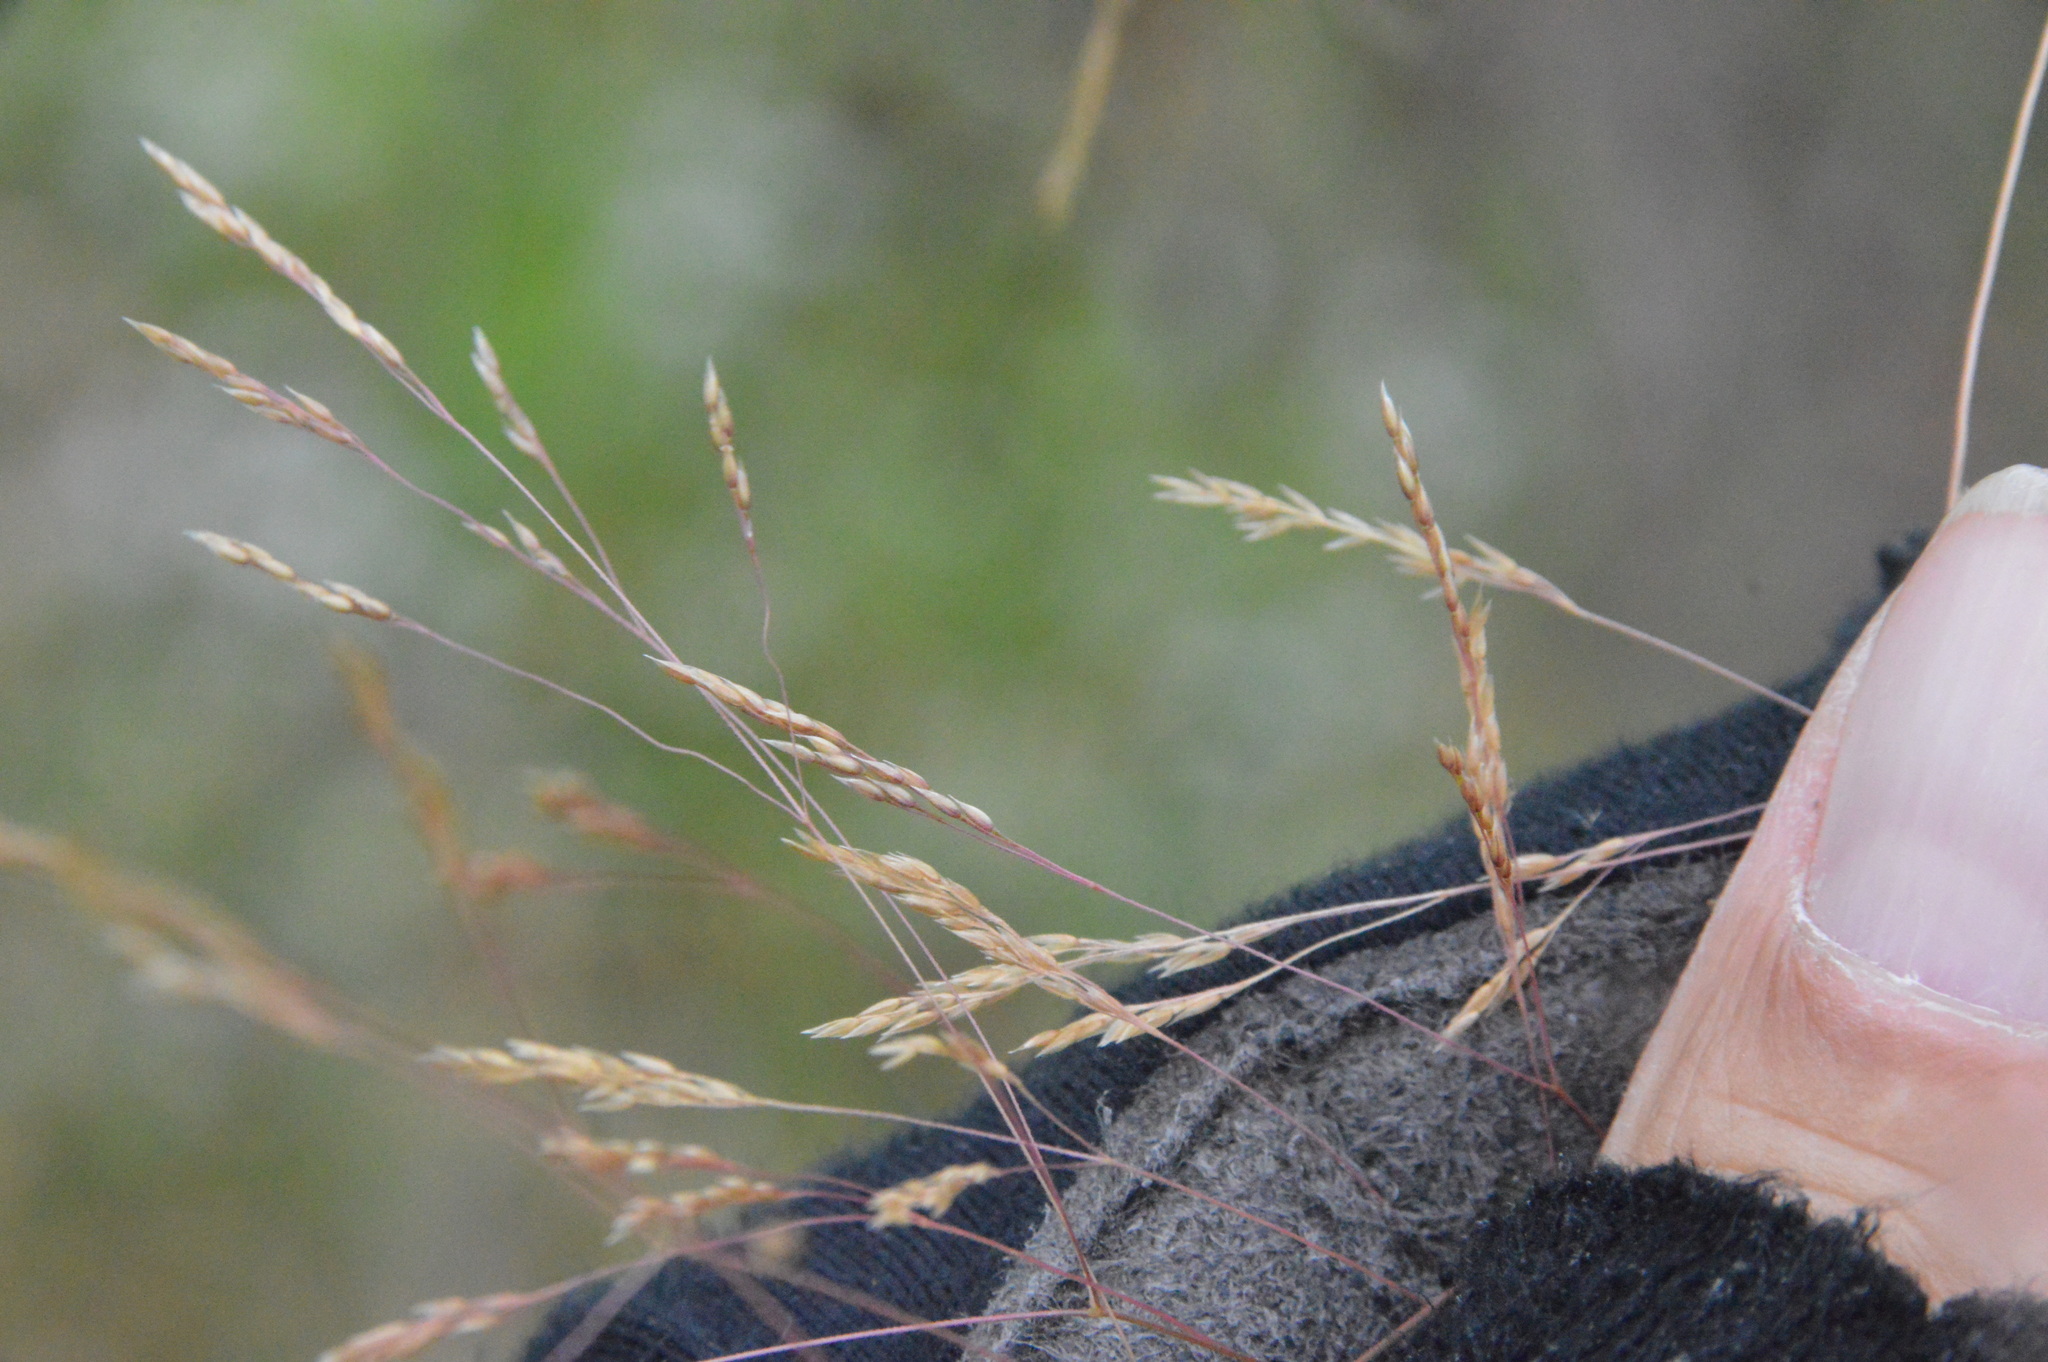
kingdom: Plantae
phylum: Tracheophyta
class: Liliopsida
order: Poales
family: Poaceae
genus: Agrostis
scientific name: Agrostis hyemalis
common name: Small bent
